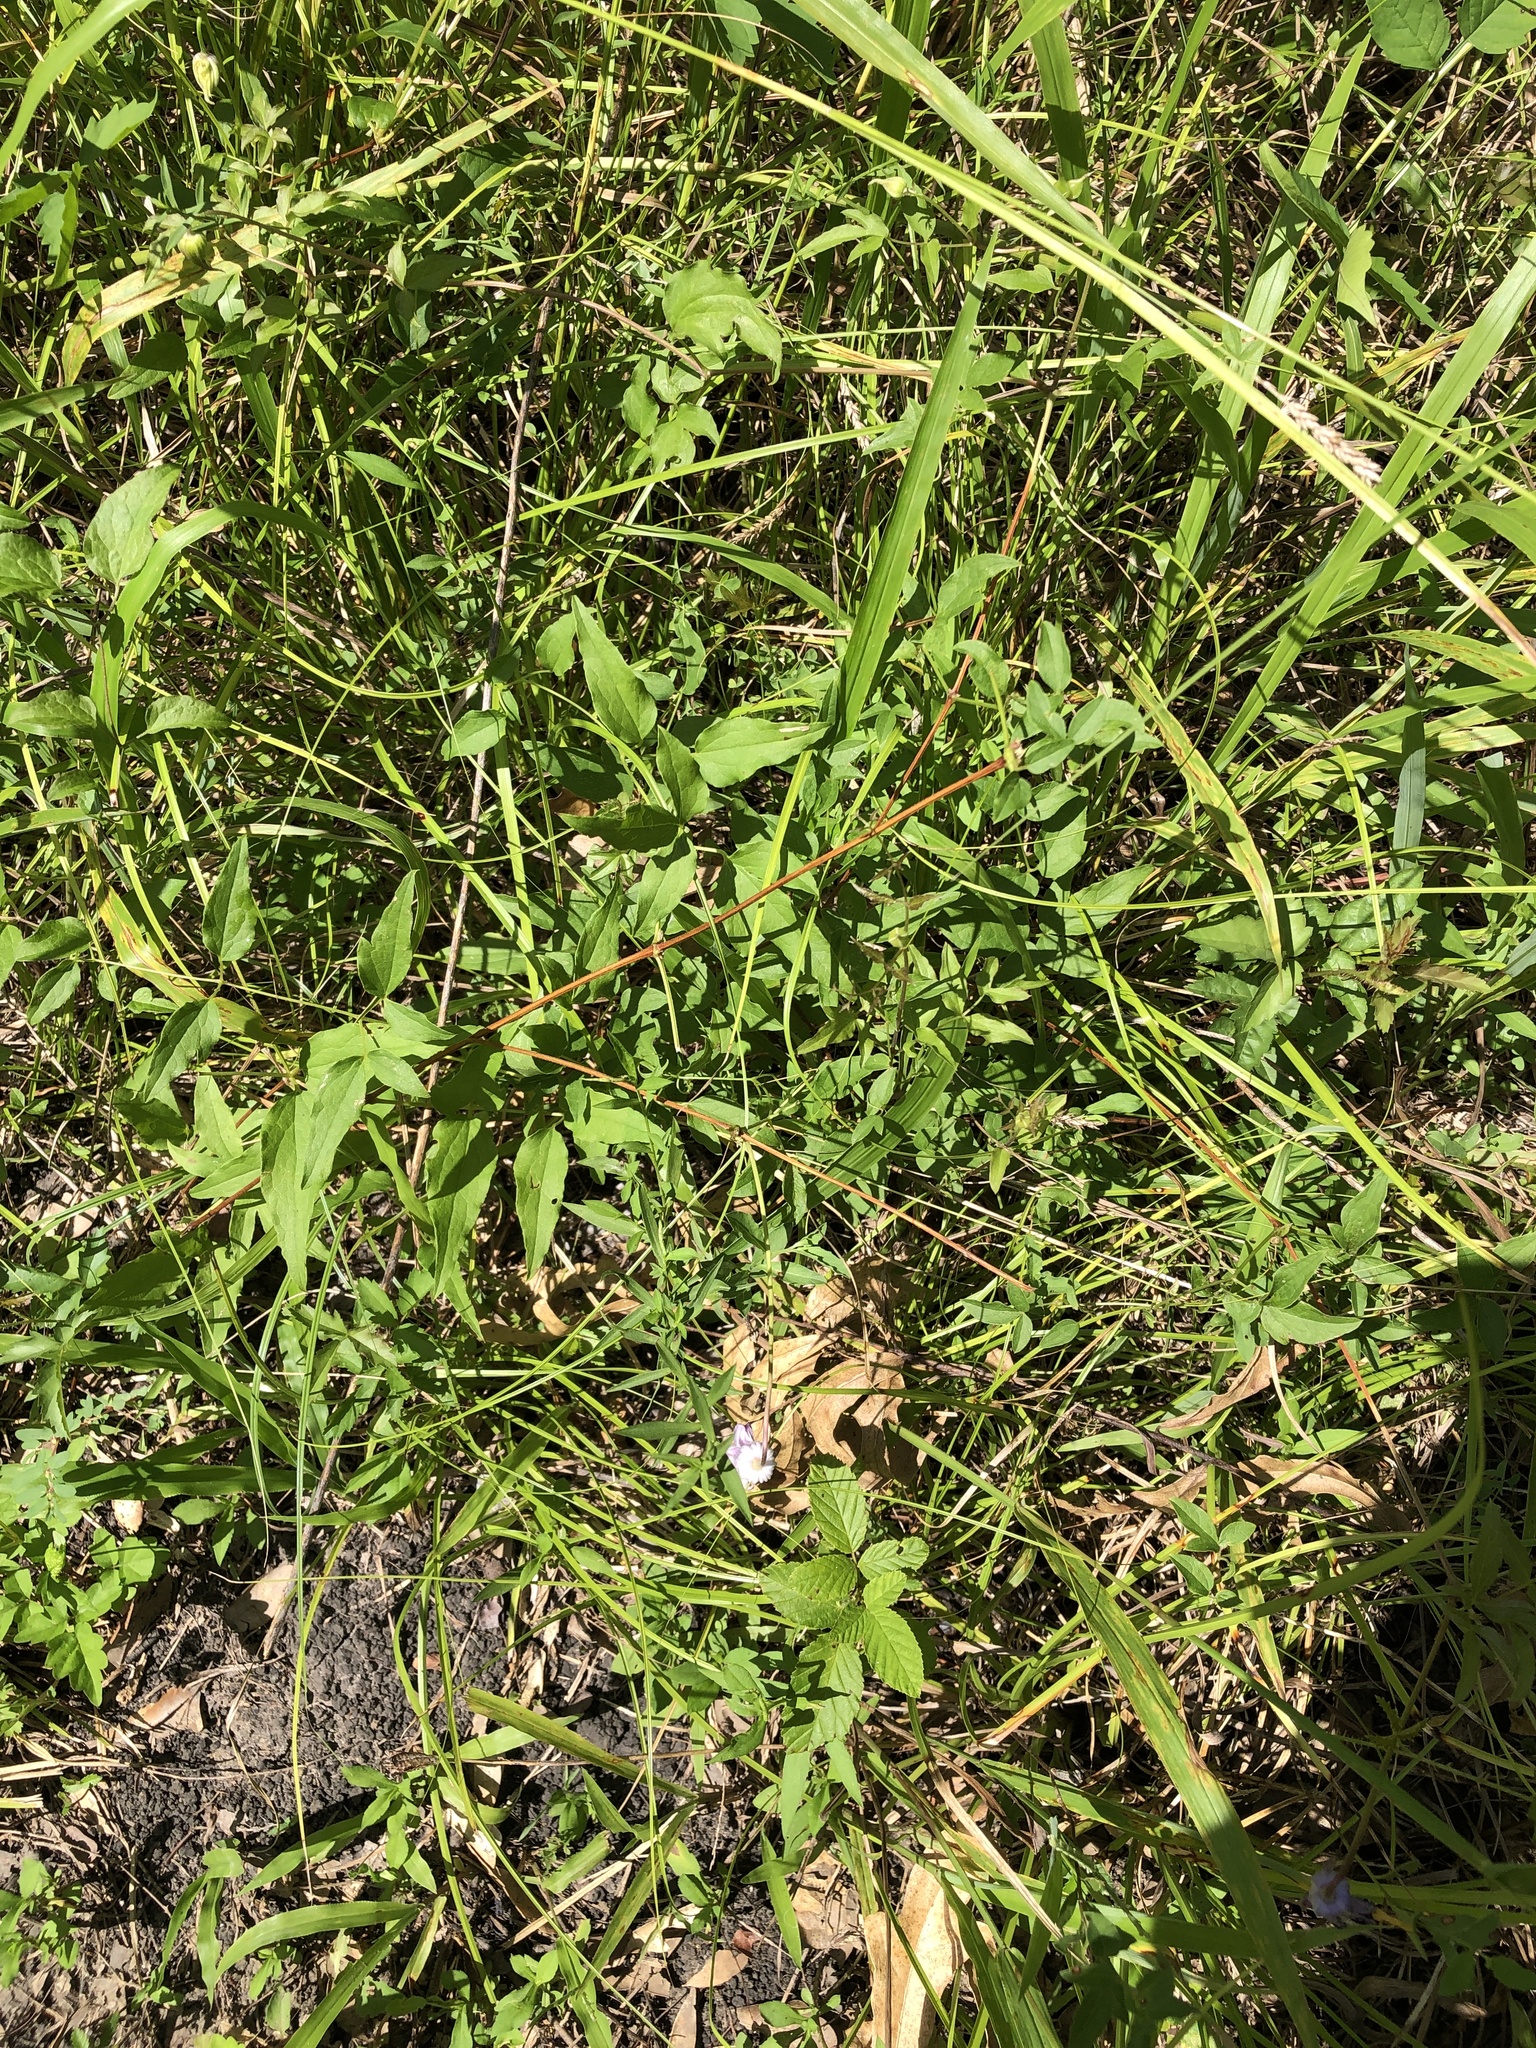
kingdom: Plantae
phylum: Tracheophyta
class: Magnoliopsida
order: Ranunculales
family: Ranunculaceae
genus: Clematis
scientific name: Clematis pitcheri
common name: Bellflower clematis
